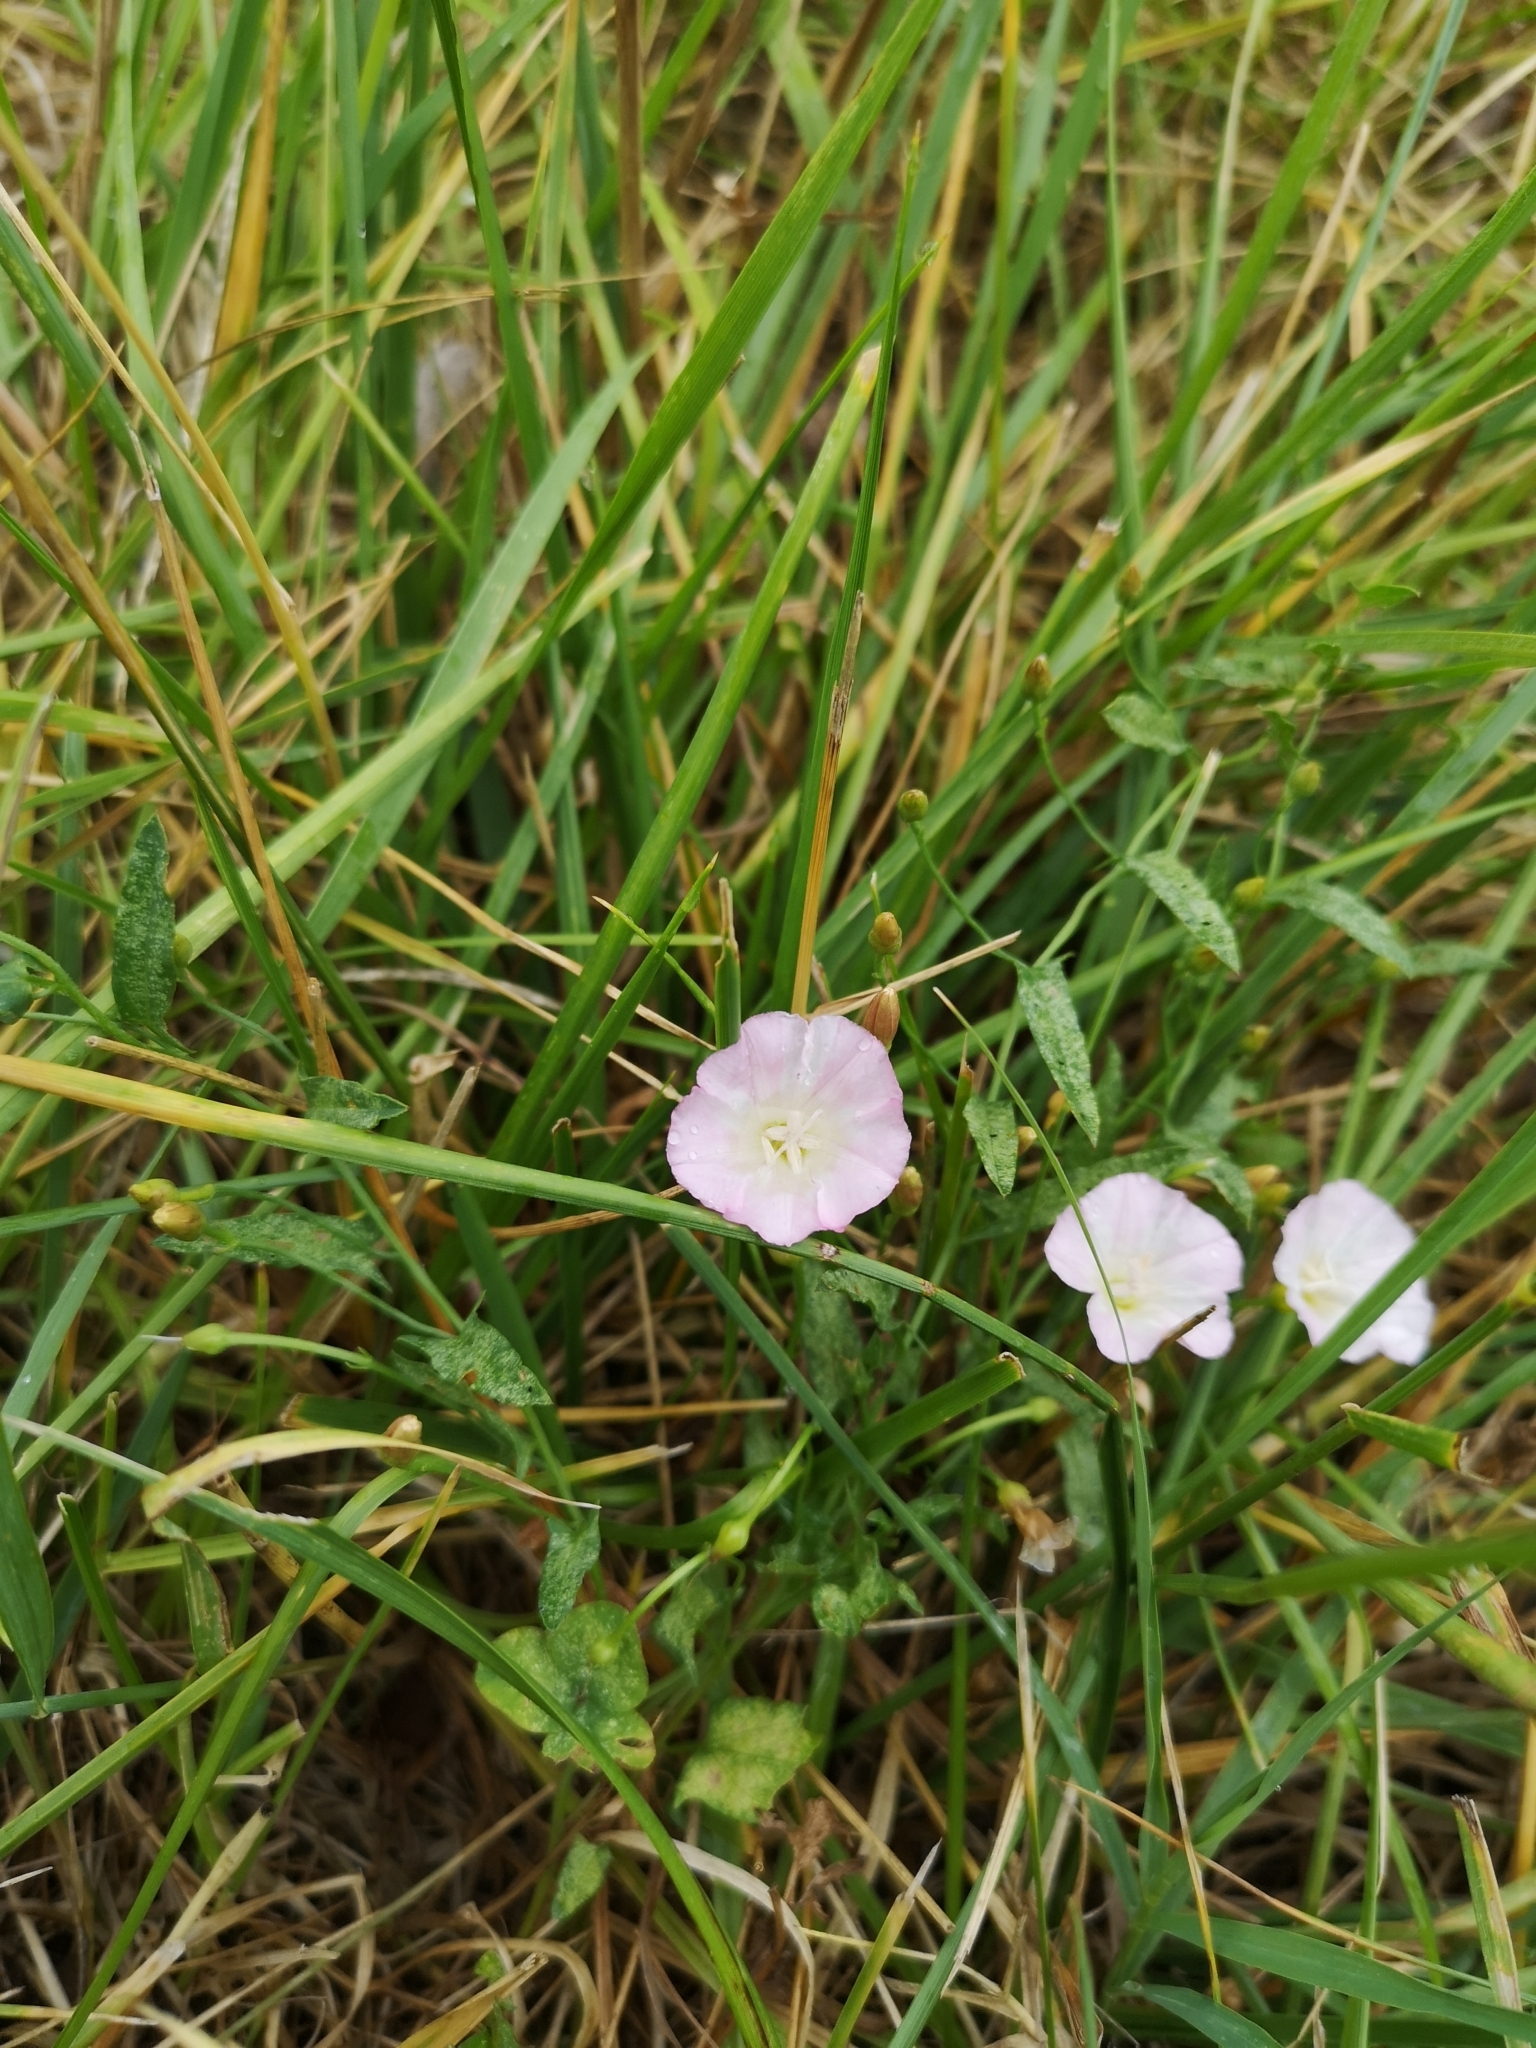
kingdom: Plantae
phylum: Tracheophyta
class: Magnoliopsida
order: Solanales
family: Convolvulaceae
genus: Convolvulus
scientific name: Convolvulus arvensis
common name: Field bindweed
